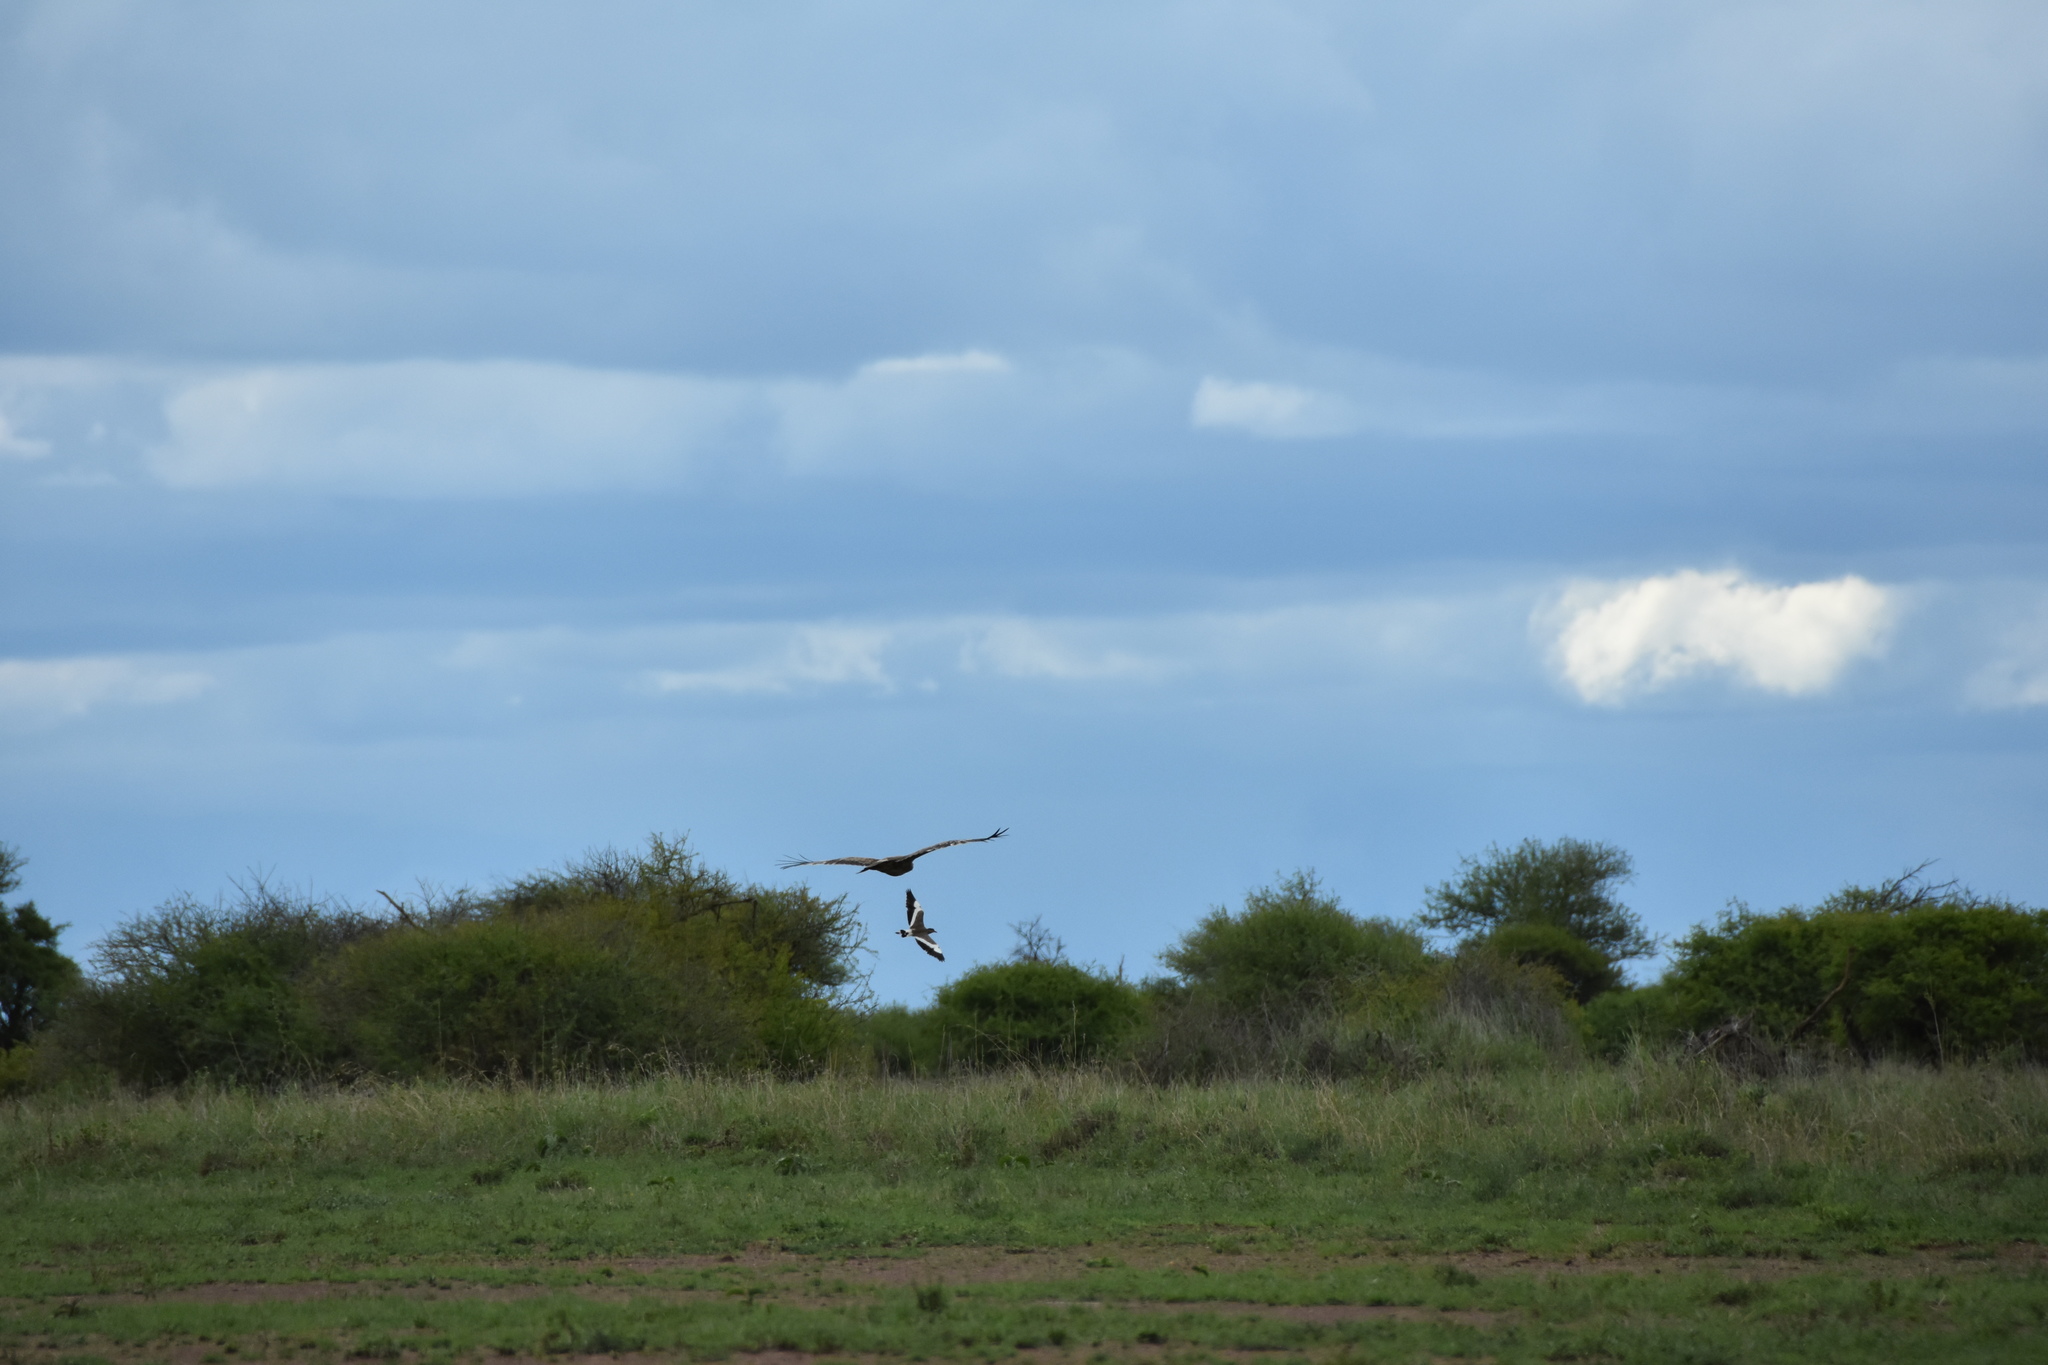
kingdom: Animalia
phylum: Chordata
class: Aves
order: Charadriiformes
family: Charadriidae
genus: Vanellus
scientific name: Vanellus coronatus
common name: Crowned lapwing
